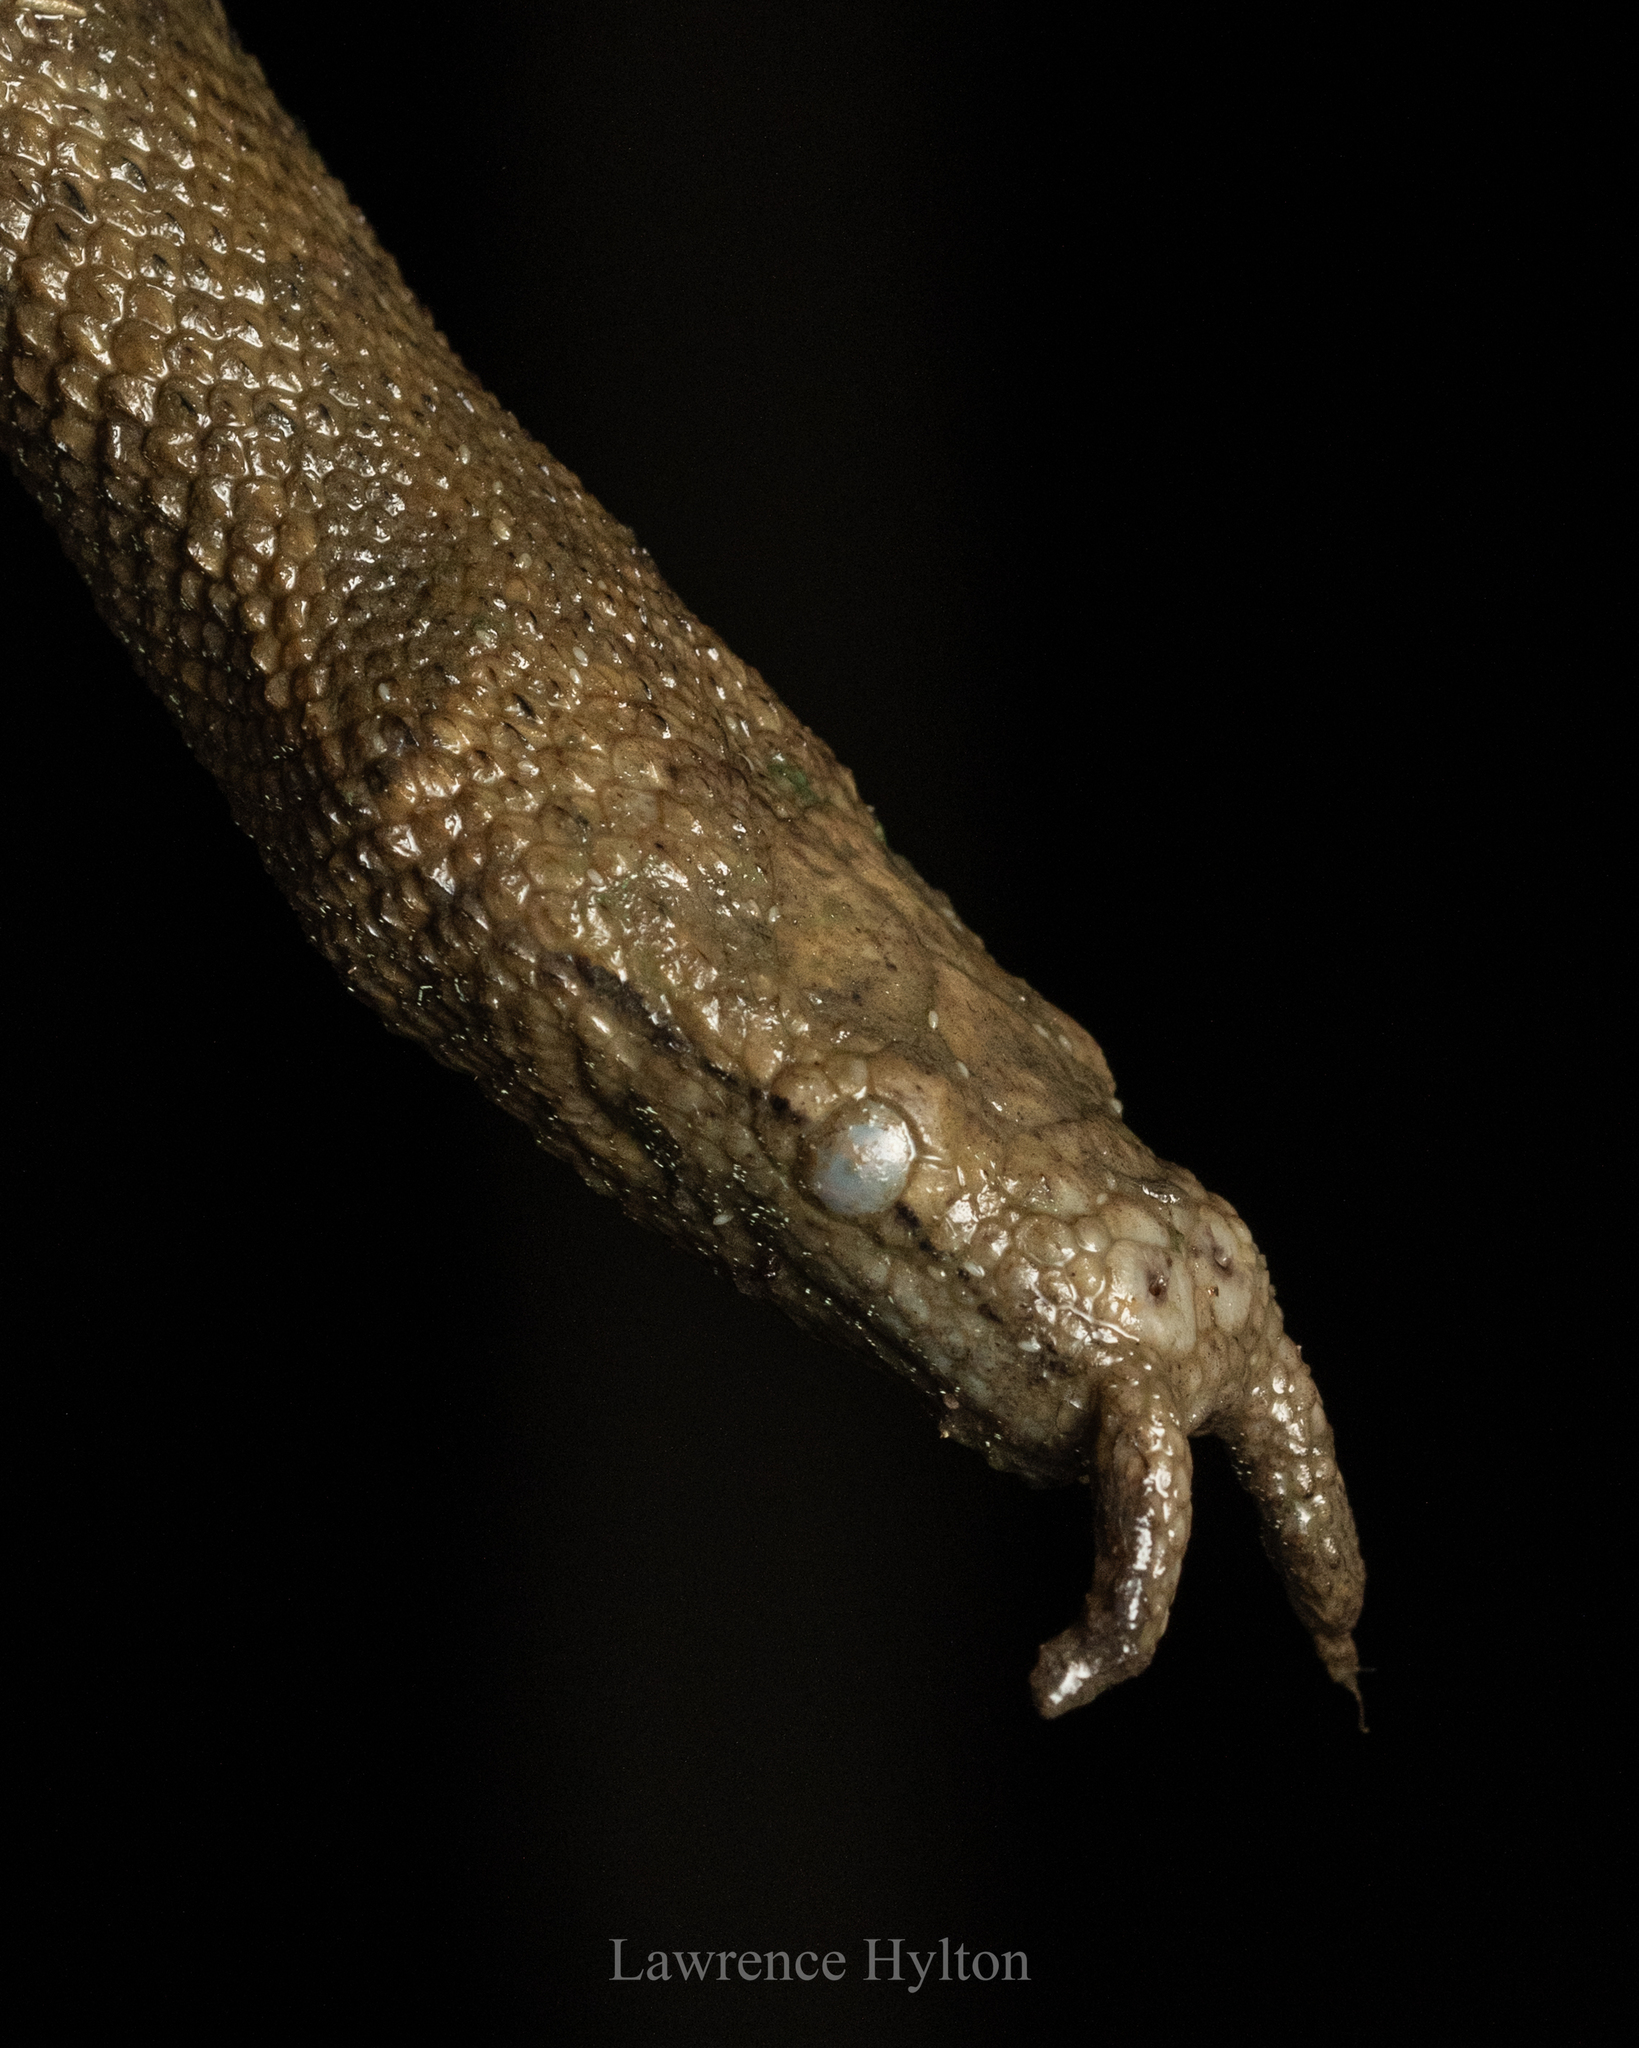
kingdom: Animalia
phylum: Chordata
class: Squamata
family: Homalopsidae
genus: Erpeton
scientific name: Erpeton tentaculatum
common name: Tentacle snake
